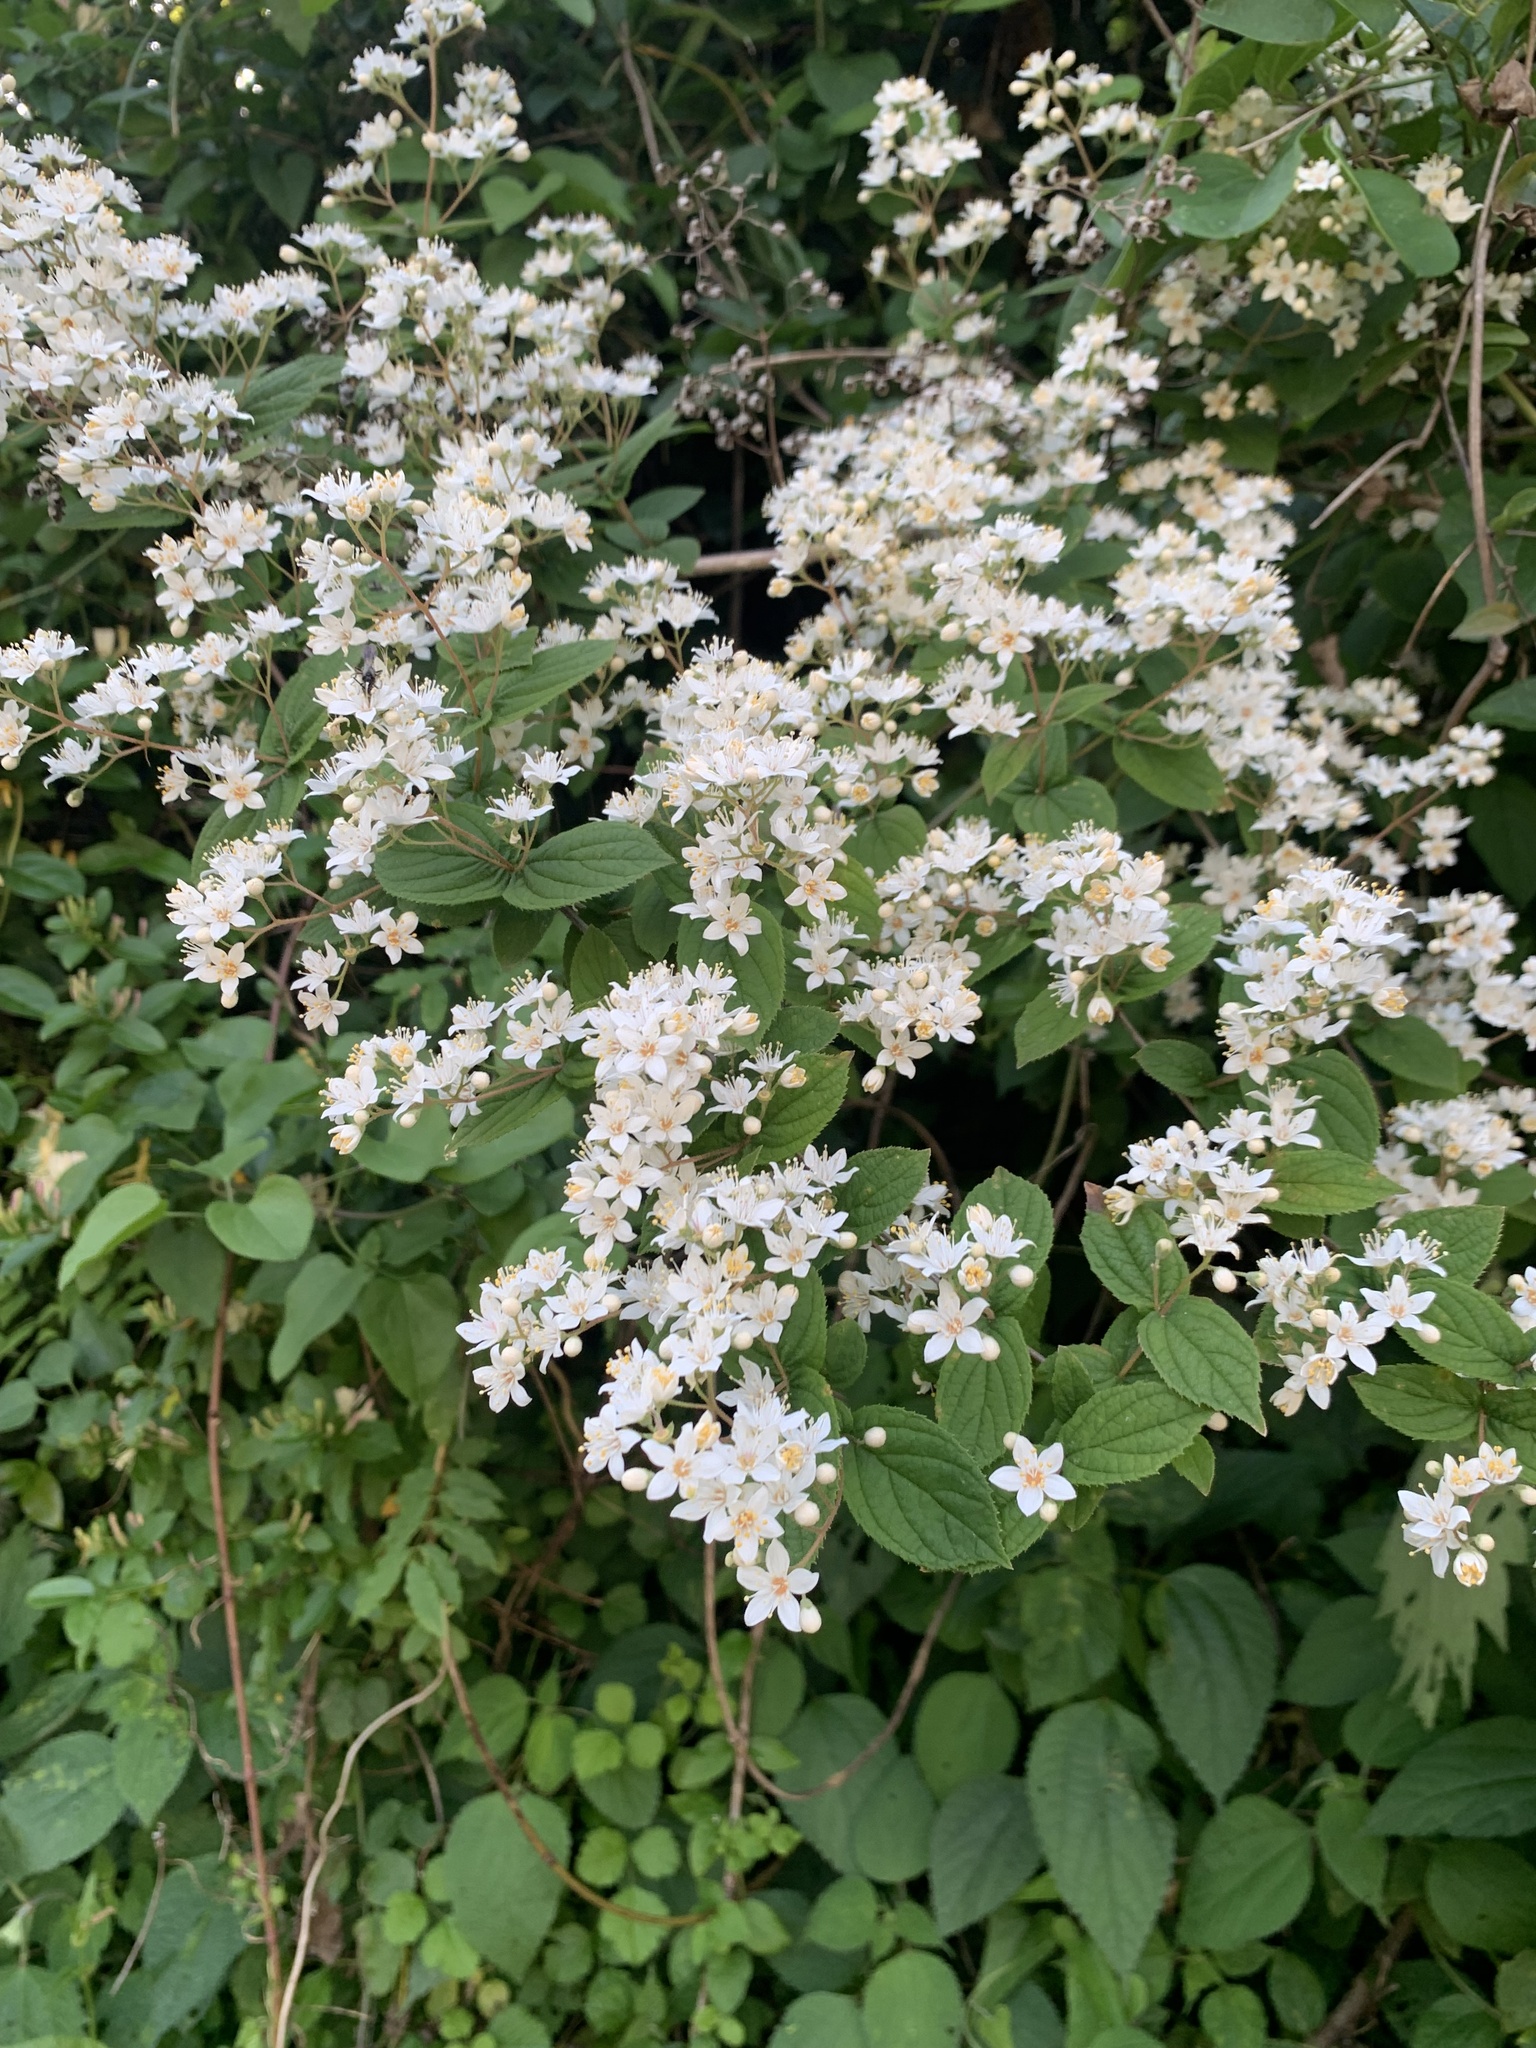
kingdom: Plantae
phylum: Tracheophyta
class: Magnoliopsida
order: Cornales
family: Hydrangeaceae
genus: Deutzia
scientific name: Deutzia scabra
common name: Deutzia
